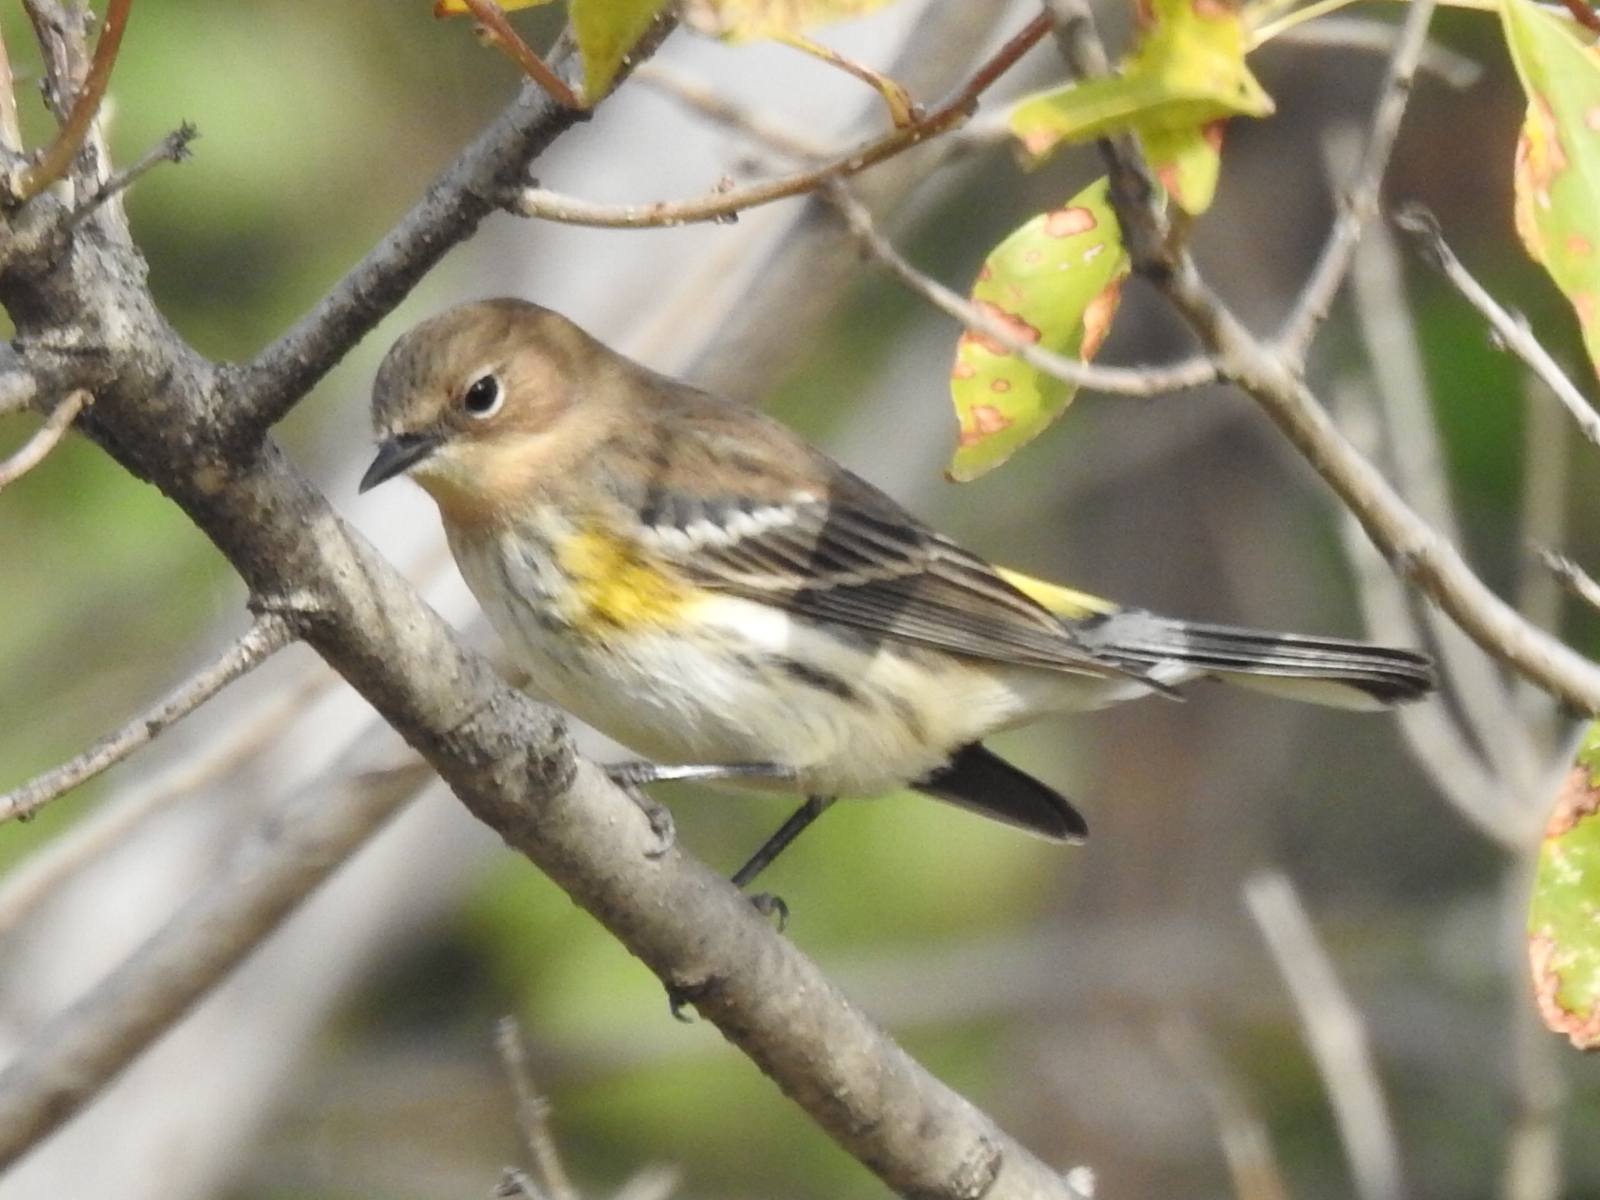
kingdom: Animalia
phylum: Chordata
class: Aves
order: Passeriformes
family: Parulidae
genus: Setophaga
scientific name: Setophaga coronata
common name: Myrtle warbler
